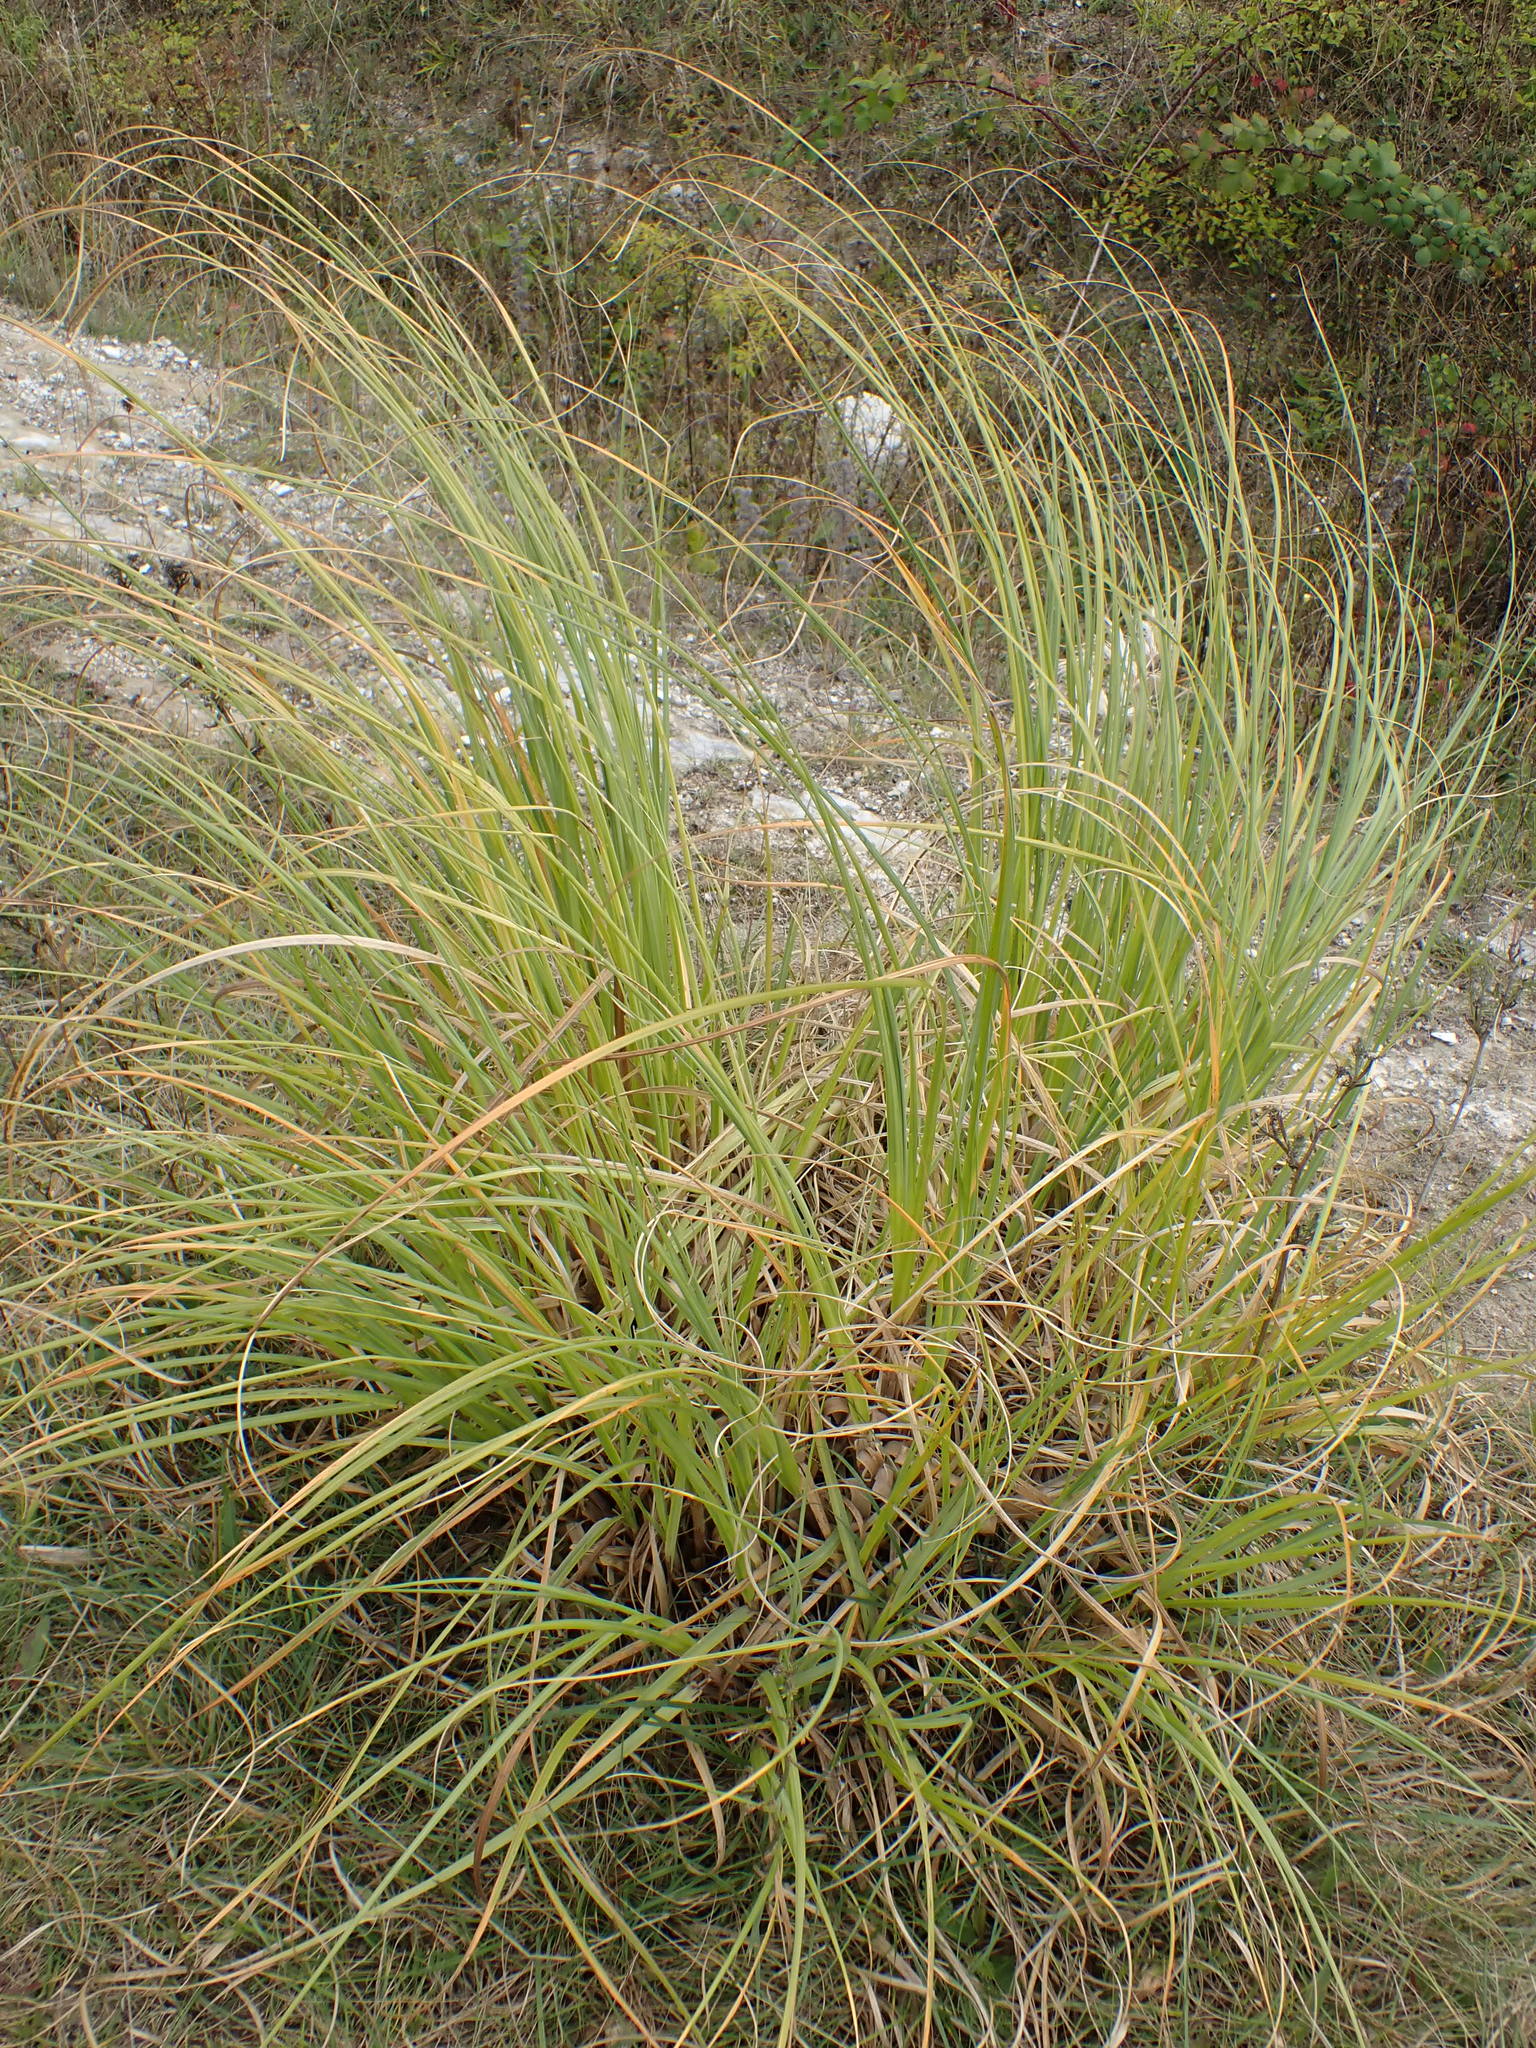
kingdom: Plantae
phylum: Tracheophyta
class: Liliopsida
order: Poales
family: Poaceae
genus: Cortaderia
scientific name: Cortaderia selloana
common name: Uruguayan pampas grass
